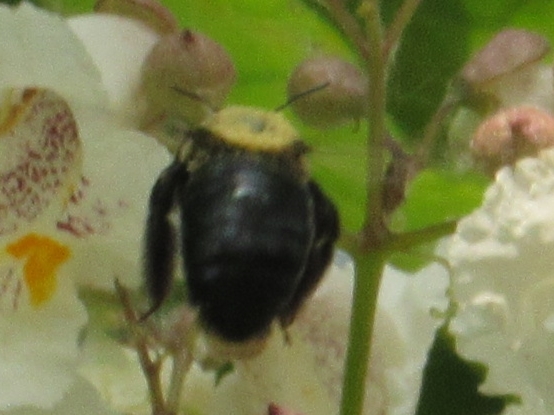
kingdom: Animalia
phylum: Arthropoda
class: Insecta
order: Hymenoptera
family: Apidae
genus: Xylocopa
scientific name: Xylocopa virginica
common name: Carpenter bee
